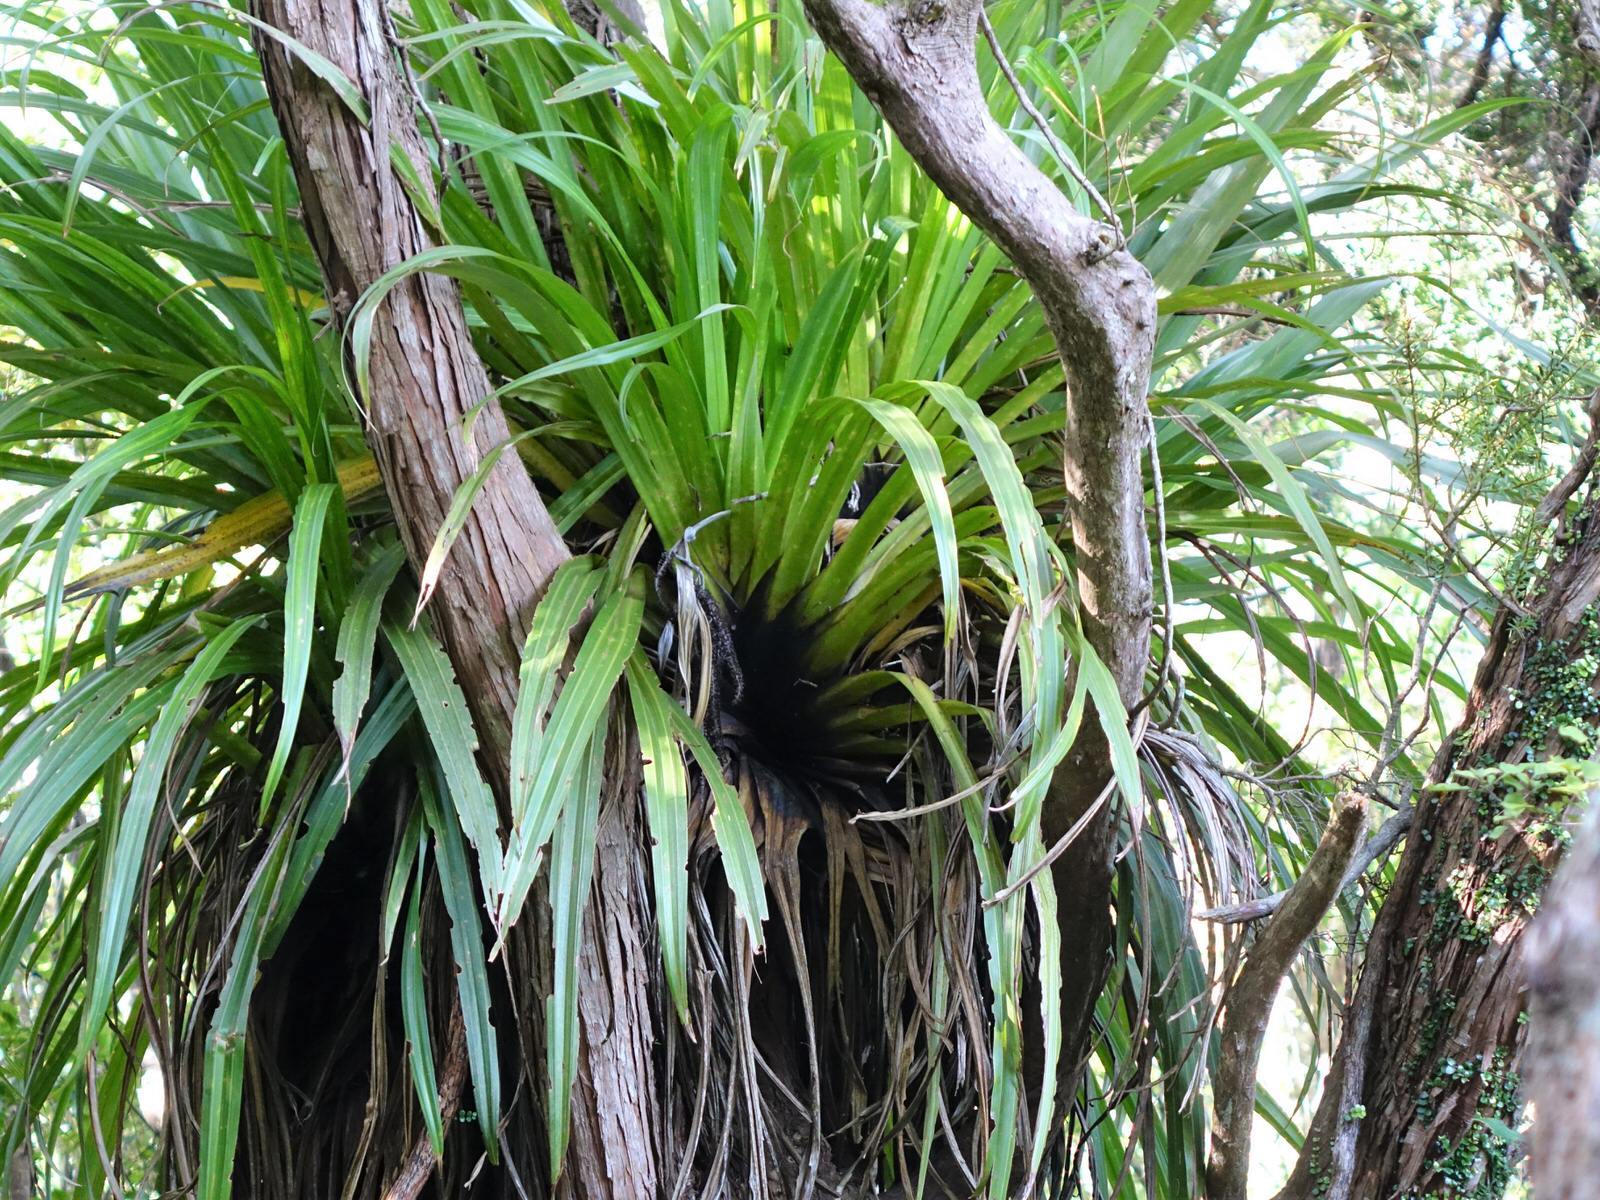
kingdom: Plantae
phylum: Tracheophyta
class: Liliopsida
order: Asparagales
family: Asteliaceae
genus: Astelia
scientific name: Astelia hastata
